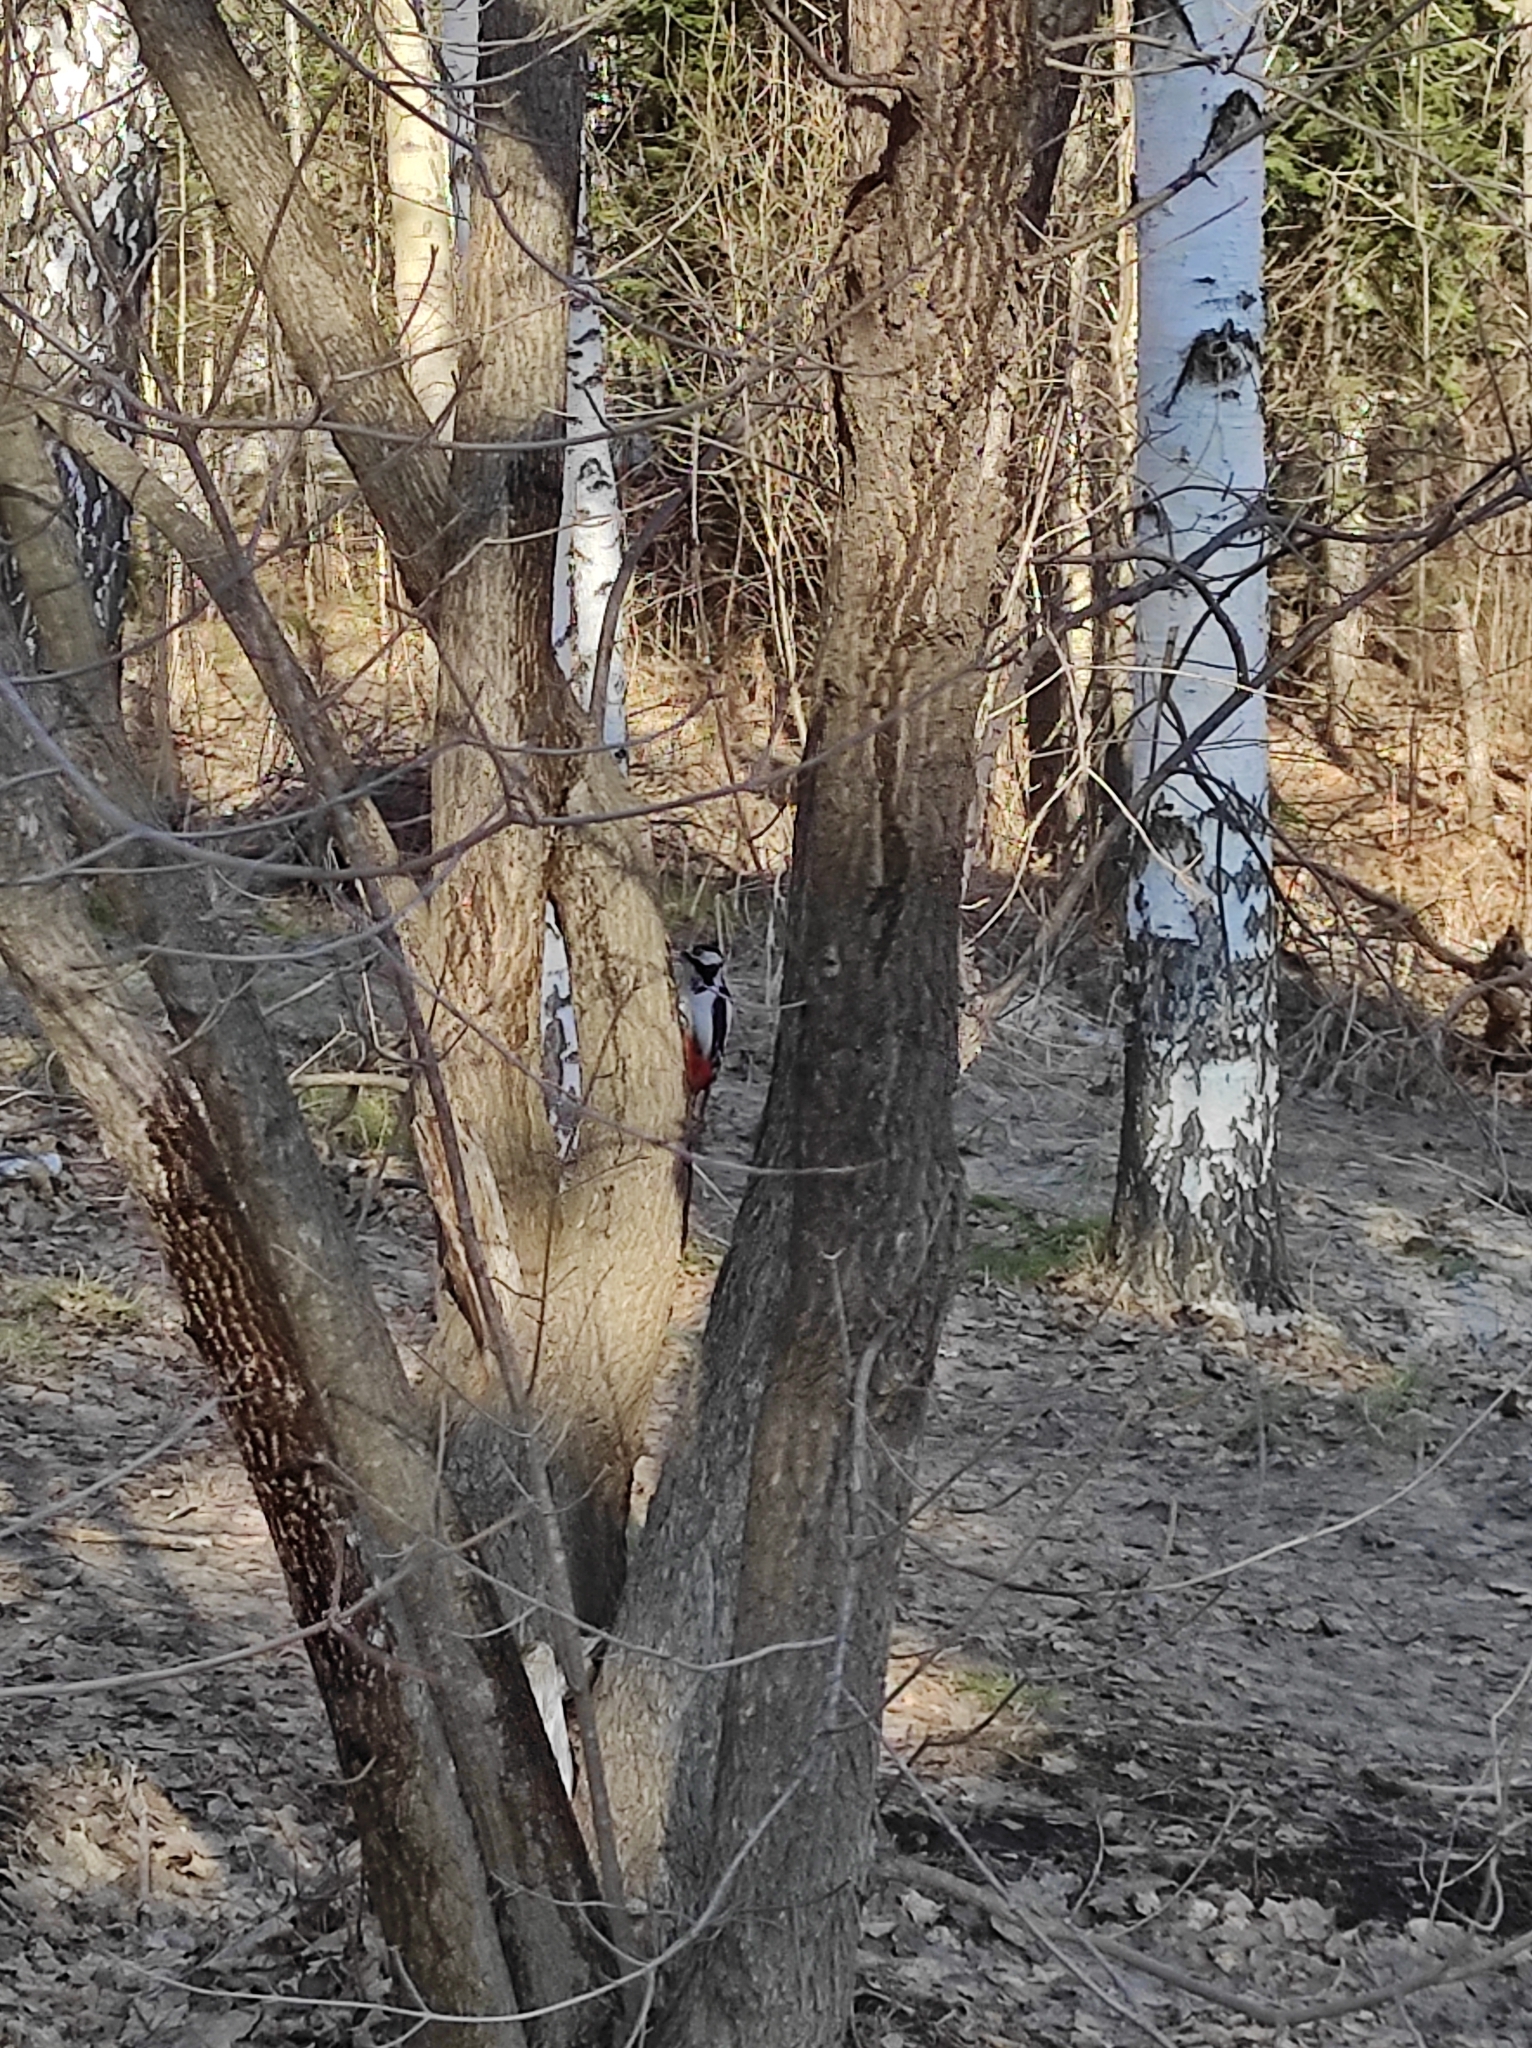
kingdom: Animalia
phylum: Chordata
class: Aves
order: Piciformes
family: Picidae
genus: Dendrocopos
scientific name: Dendrocopos major
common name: Great spotted woodpecker
